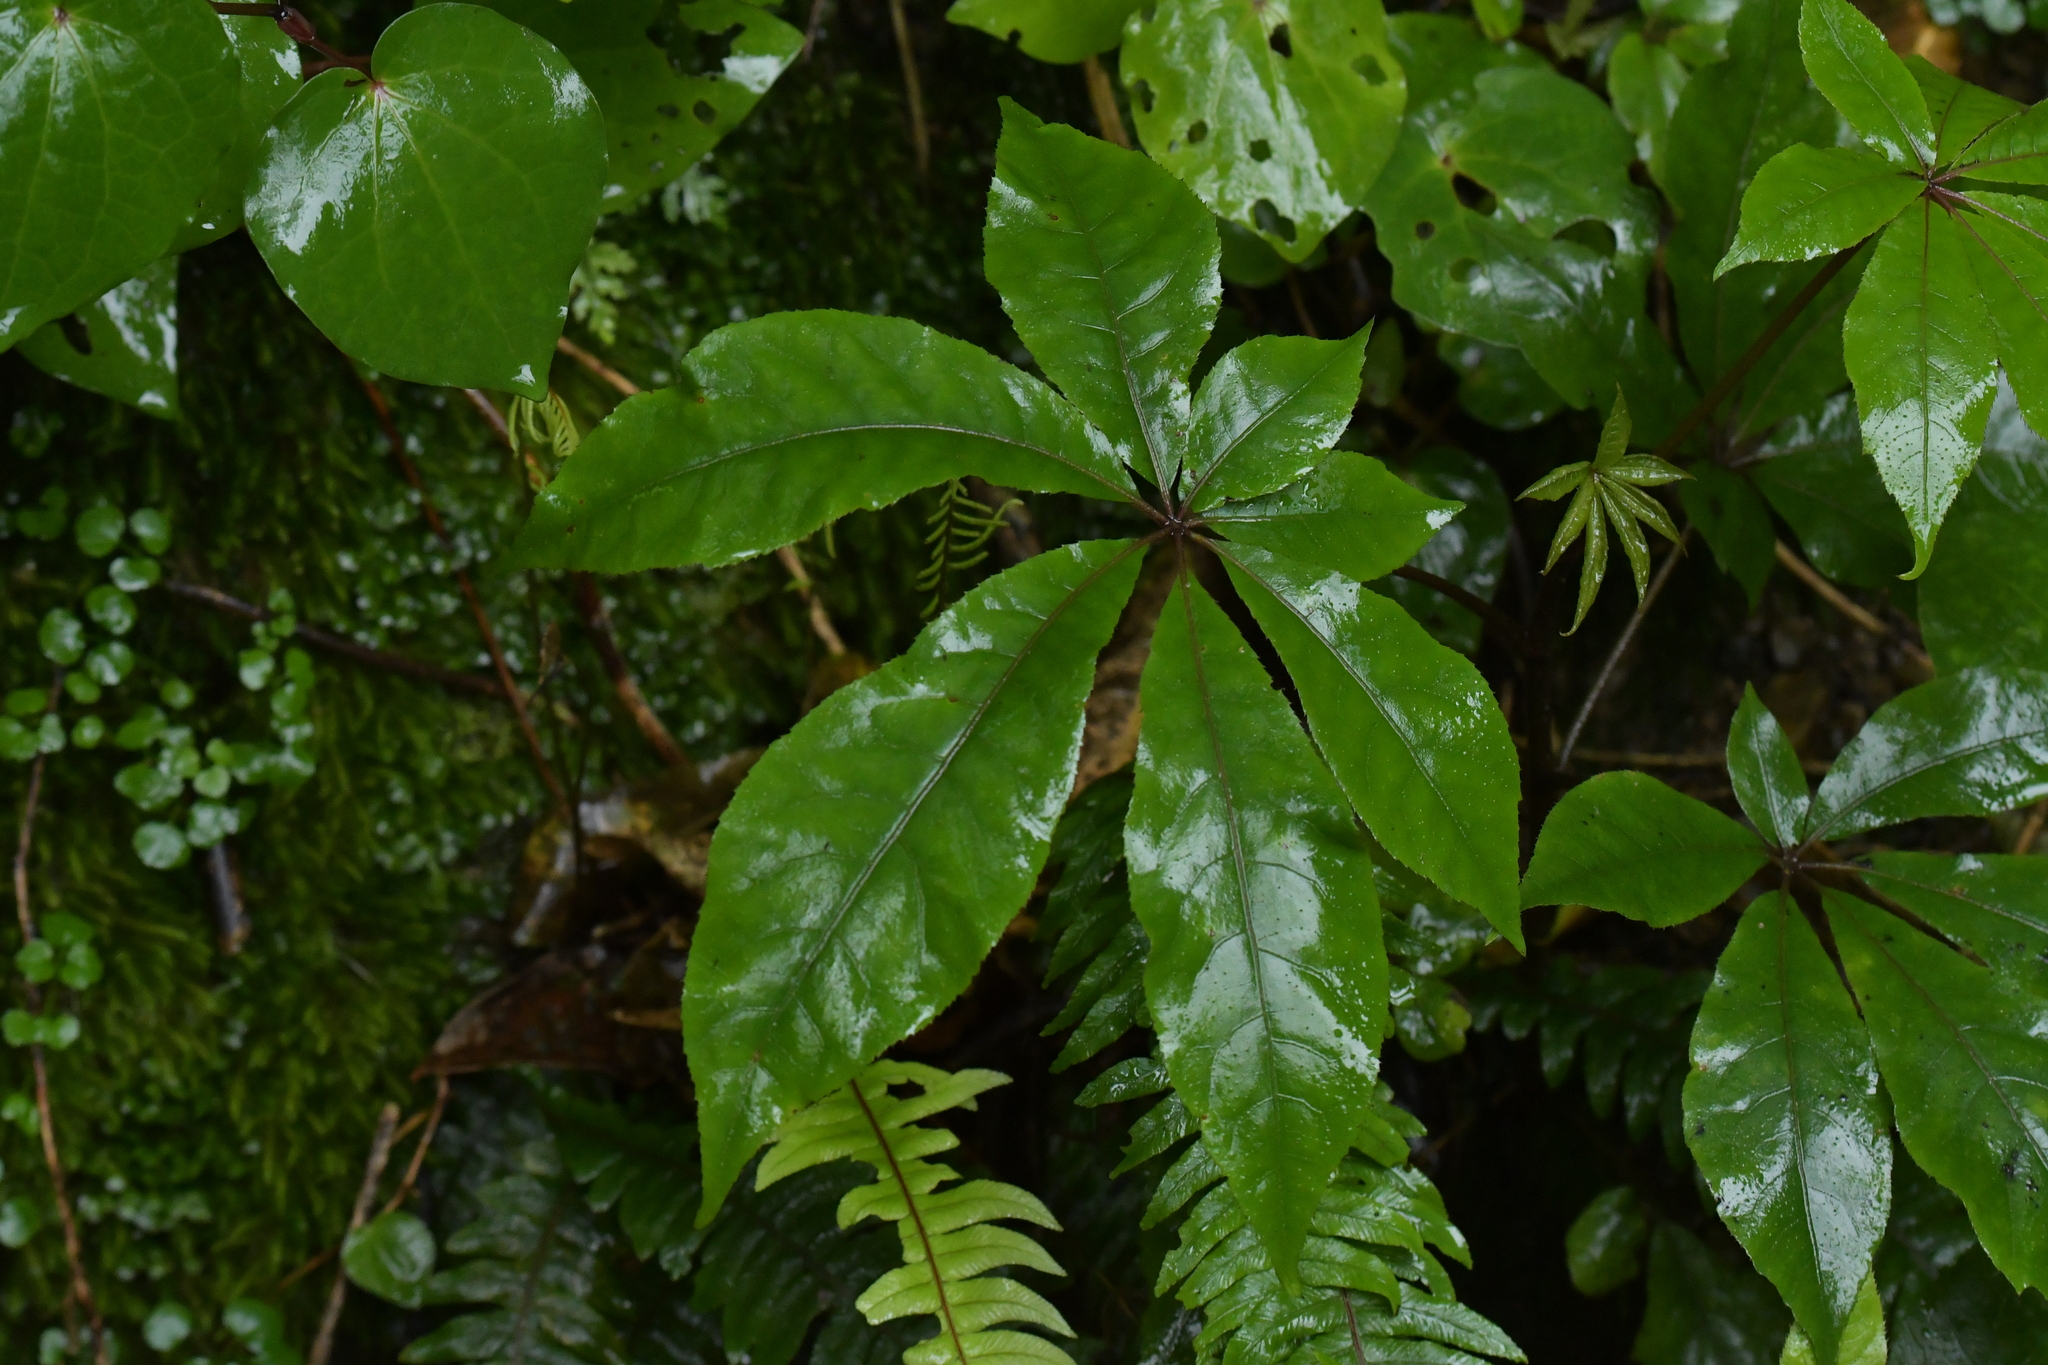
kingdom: Plantae
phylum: Tracheophyta
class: Magnoliopsida
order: Apiales
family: Araliaceae
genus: Schefflera
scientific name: Schefflera digitata
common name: Pate
